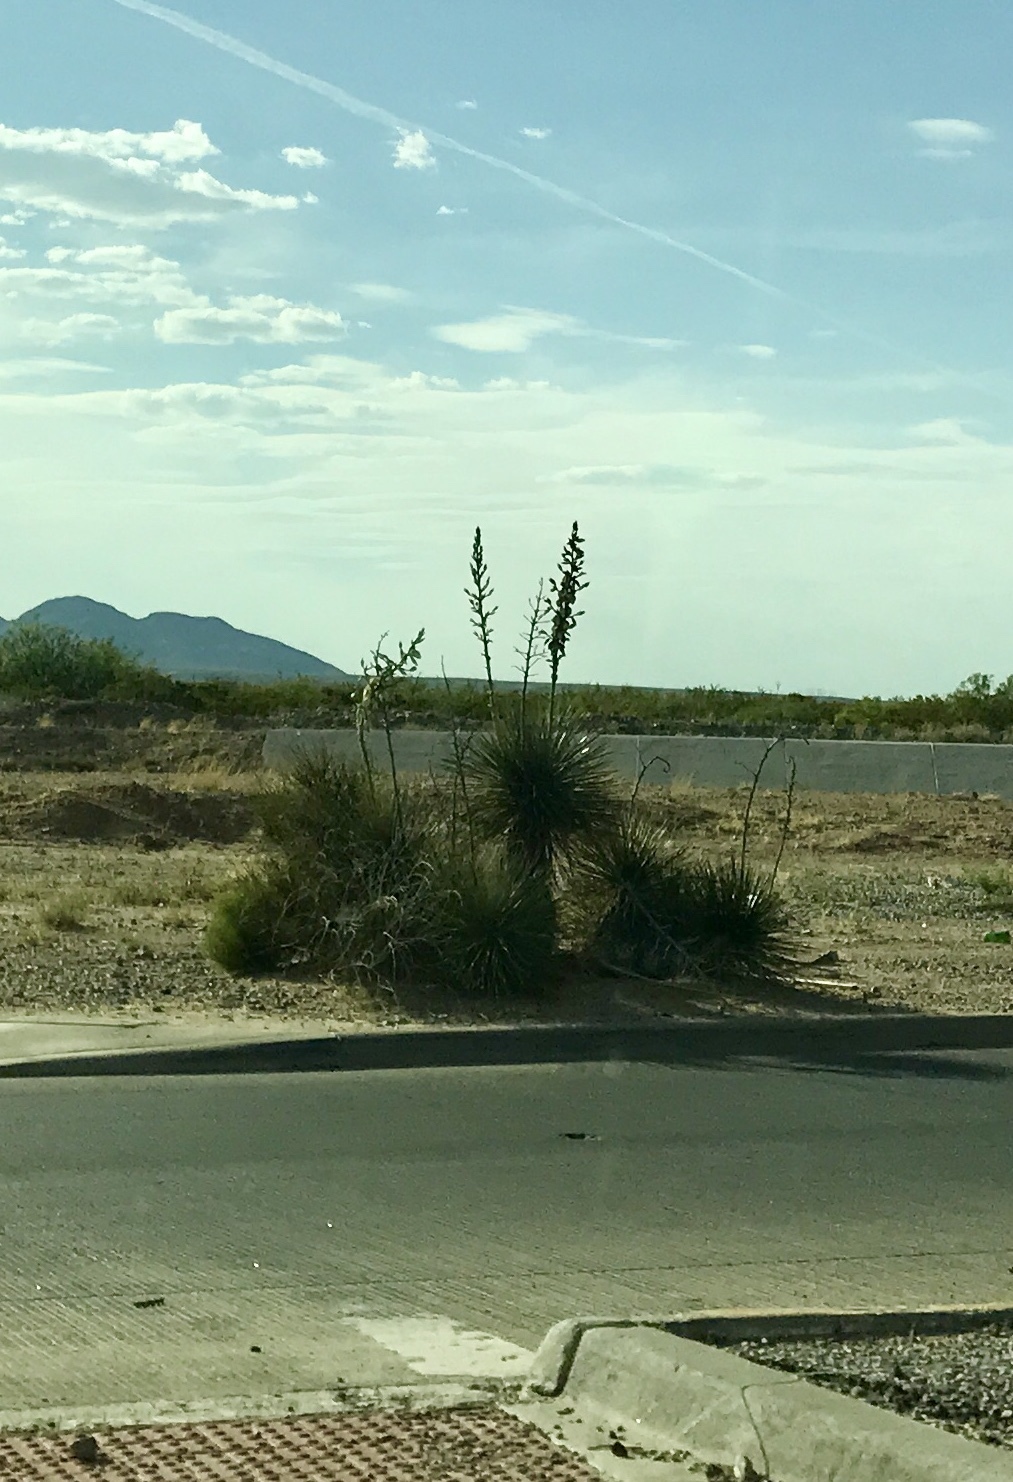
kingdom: Plantae
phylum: Tracheophyta
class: Liliopsida
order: Asparagales
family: Asparagaceae
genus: Yucca
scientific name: Yucca elata
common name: Palmella
